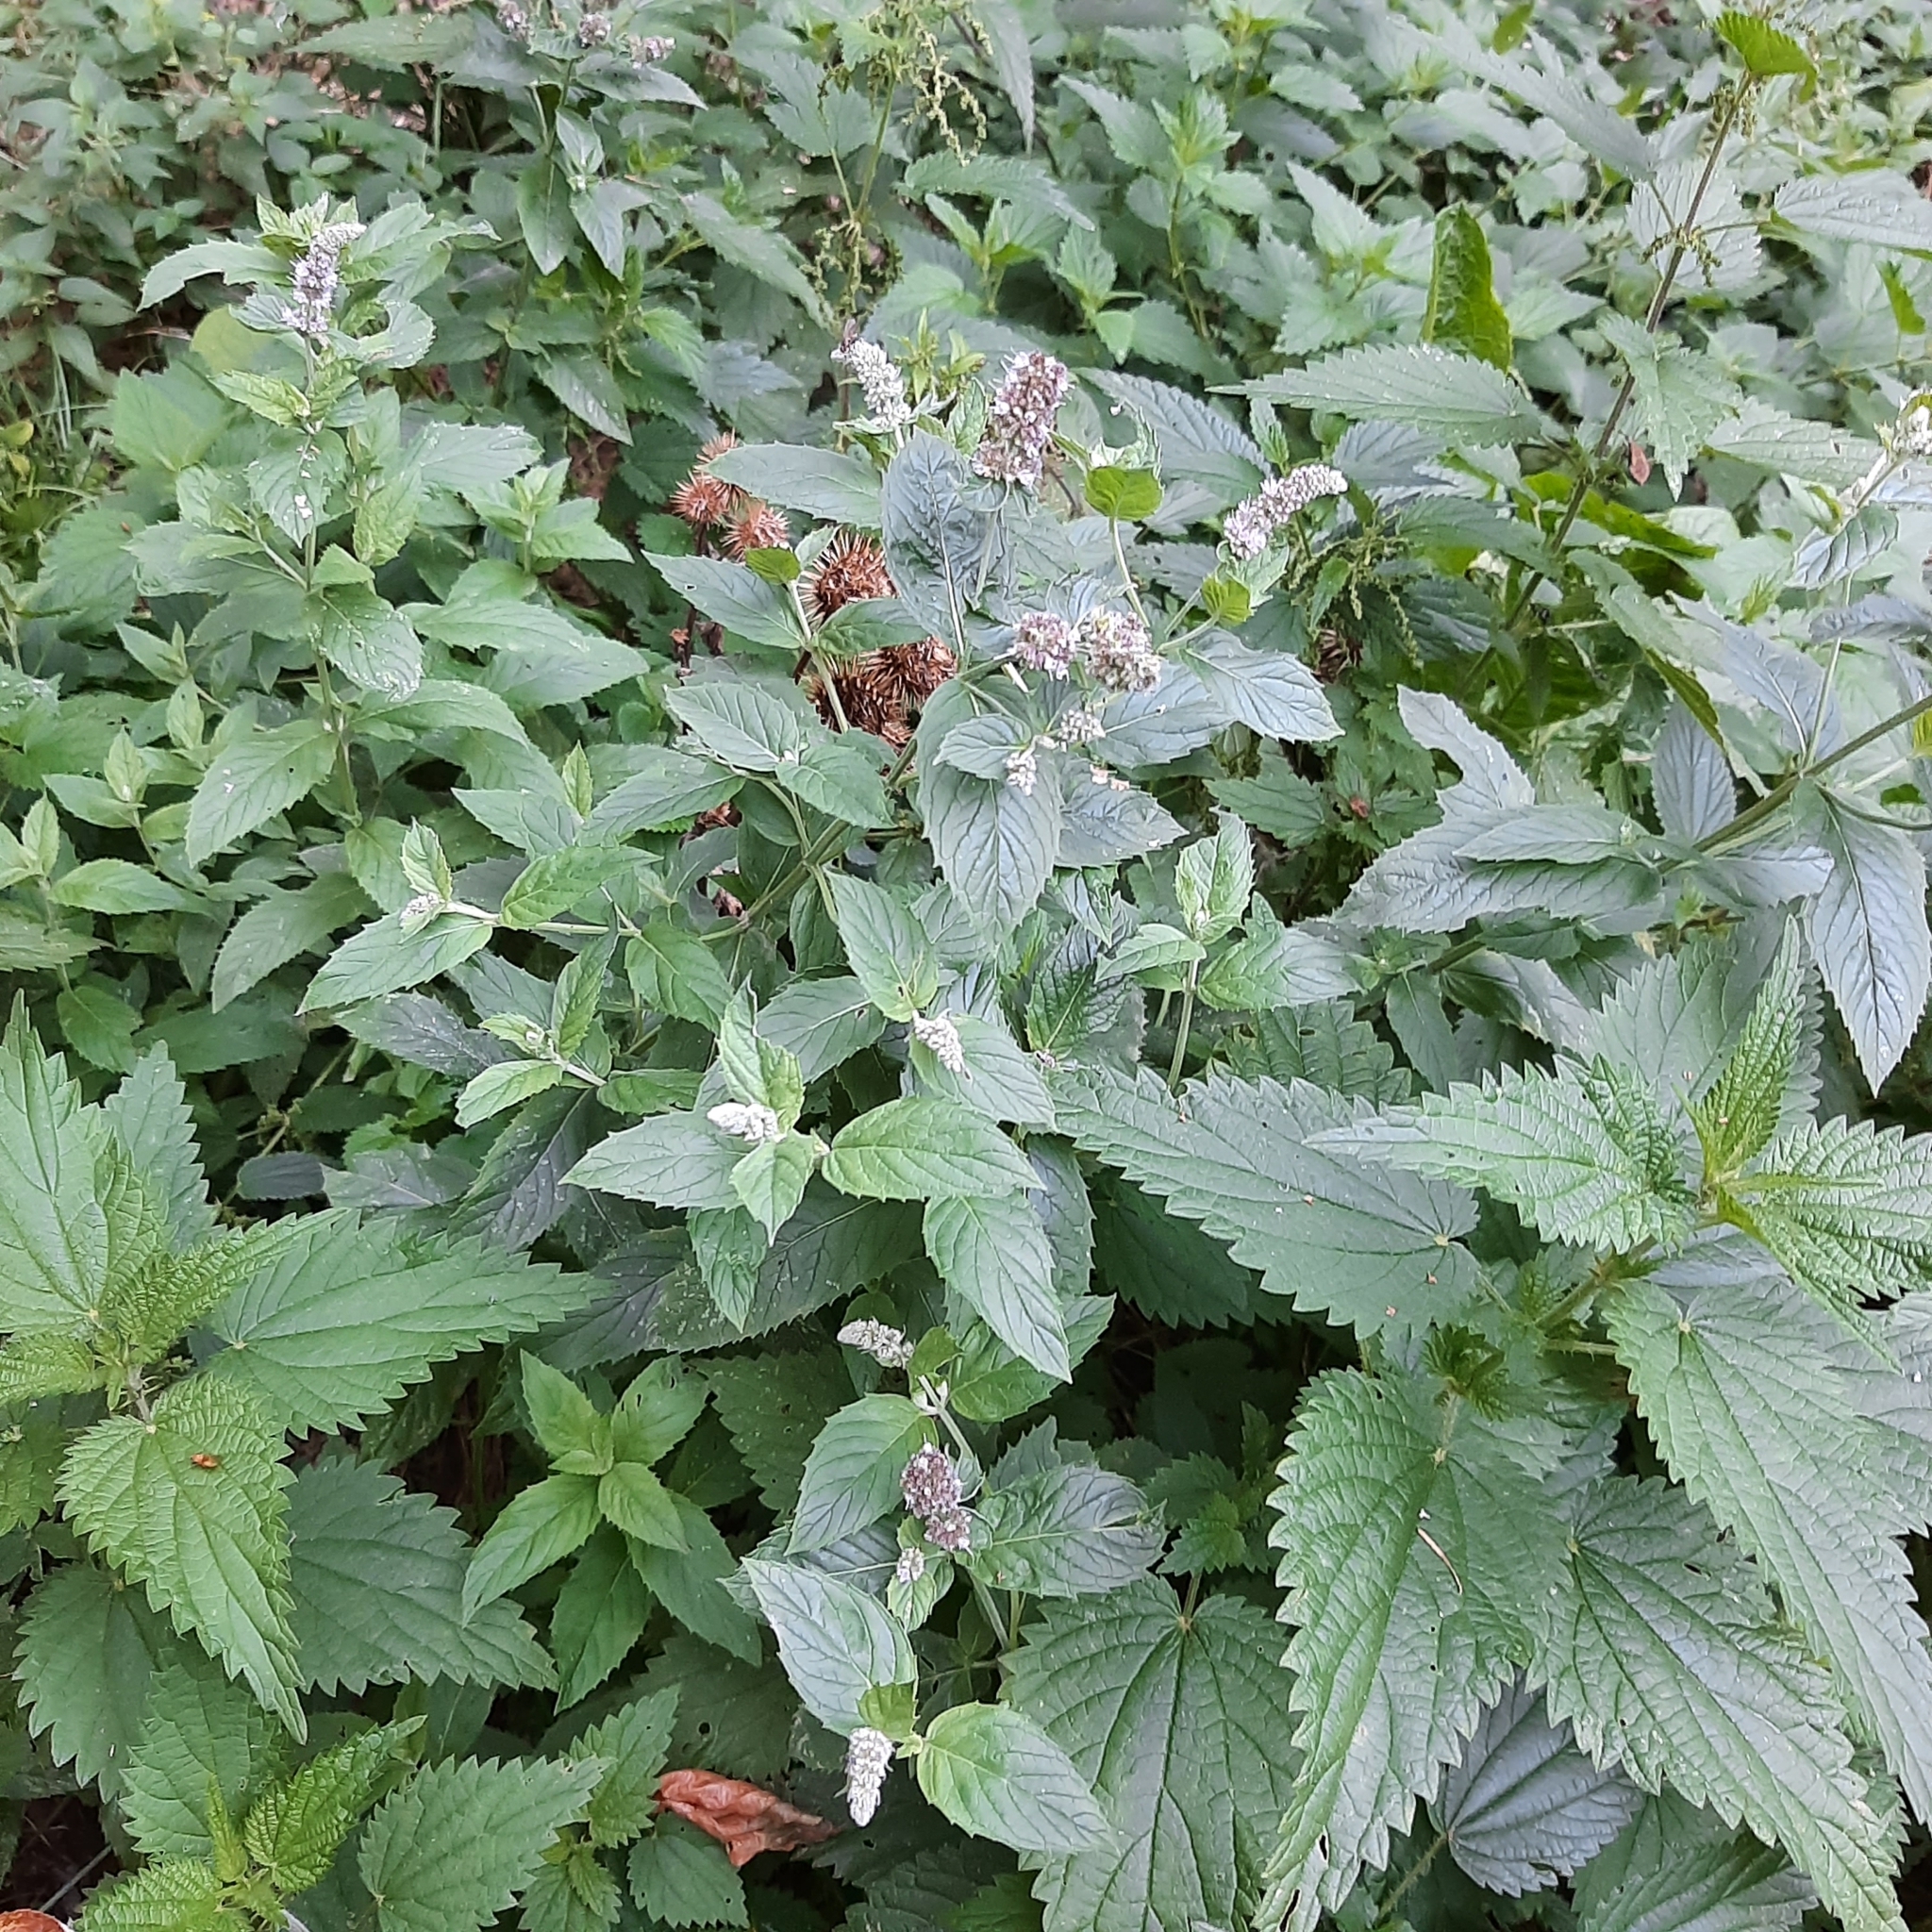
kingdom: Plantae
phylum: Tracheophyta
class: Magnoliopsida
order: Lamiales
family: Lamiaceae
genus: Mentha
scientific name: Mentha longifolia
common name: Horse mint
